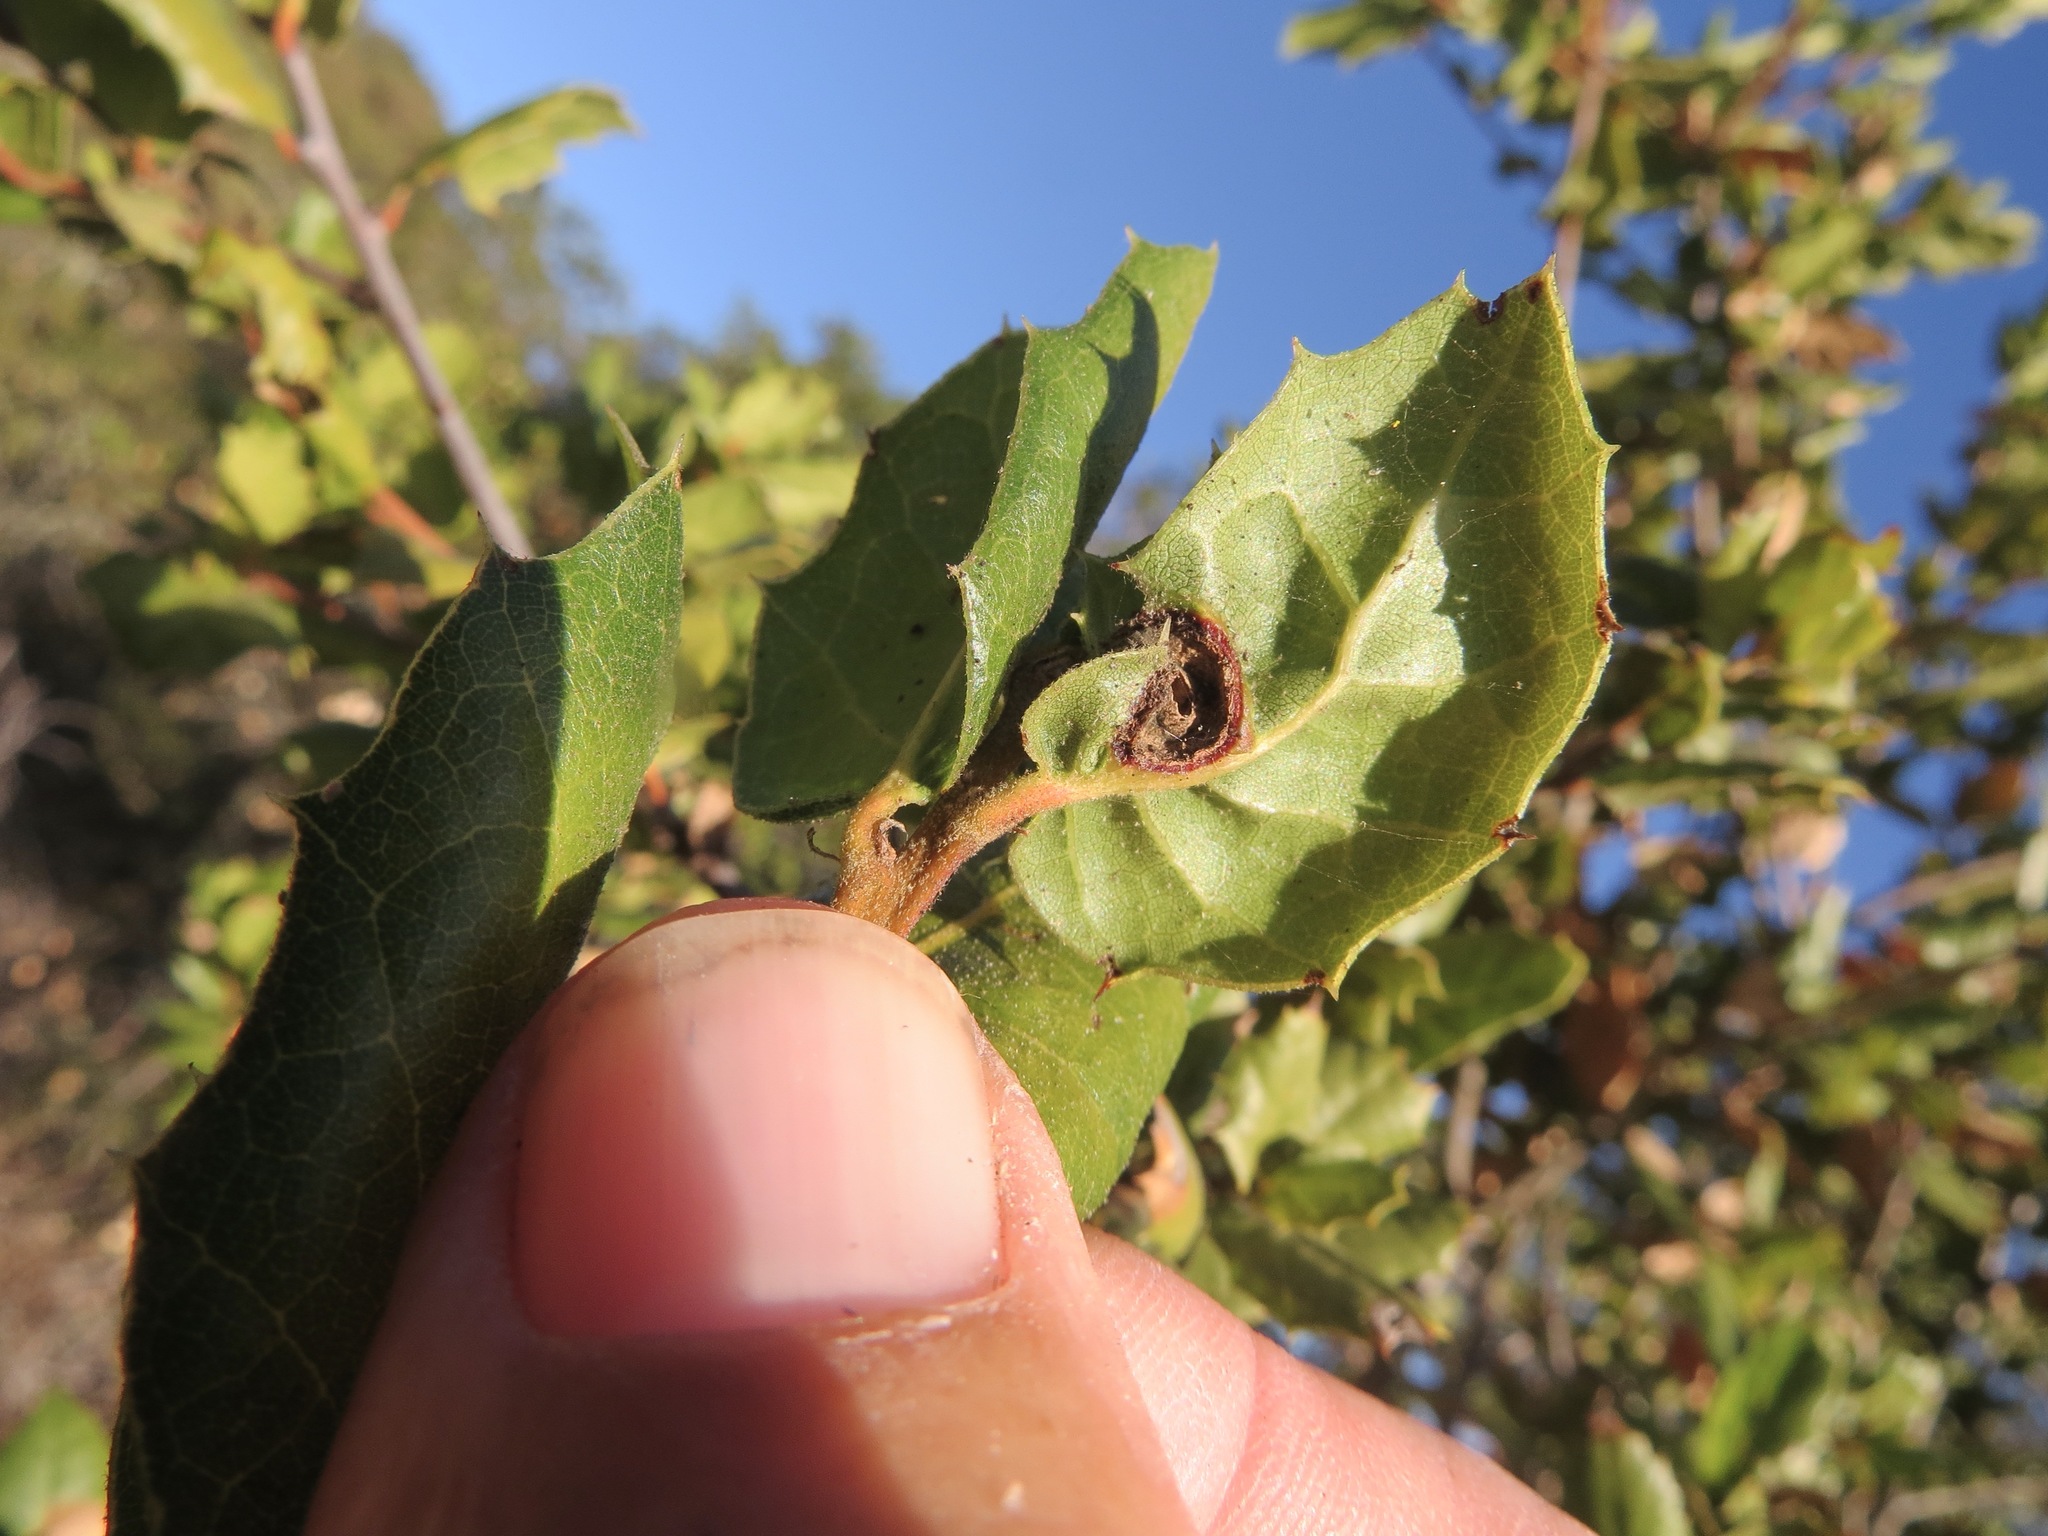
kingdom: Animalia
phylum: Arthropoda
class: Insecta
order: Hymenoptera
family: Cynipidae
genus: Callirhytis
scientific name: Callirhytis
